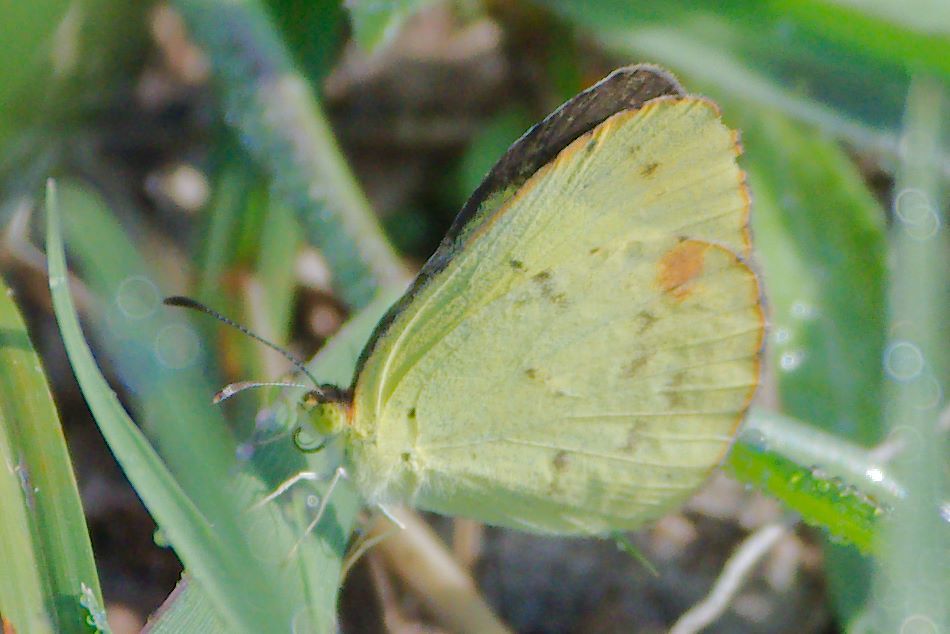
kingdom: Animalia
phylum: Arthropoda
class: Insecta
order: Lepidoptera
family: Pieridae
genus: Pyrisitia
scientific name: Pyrisitia lisa
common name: Little yellow
